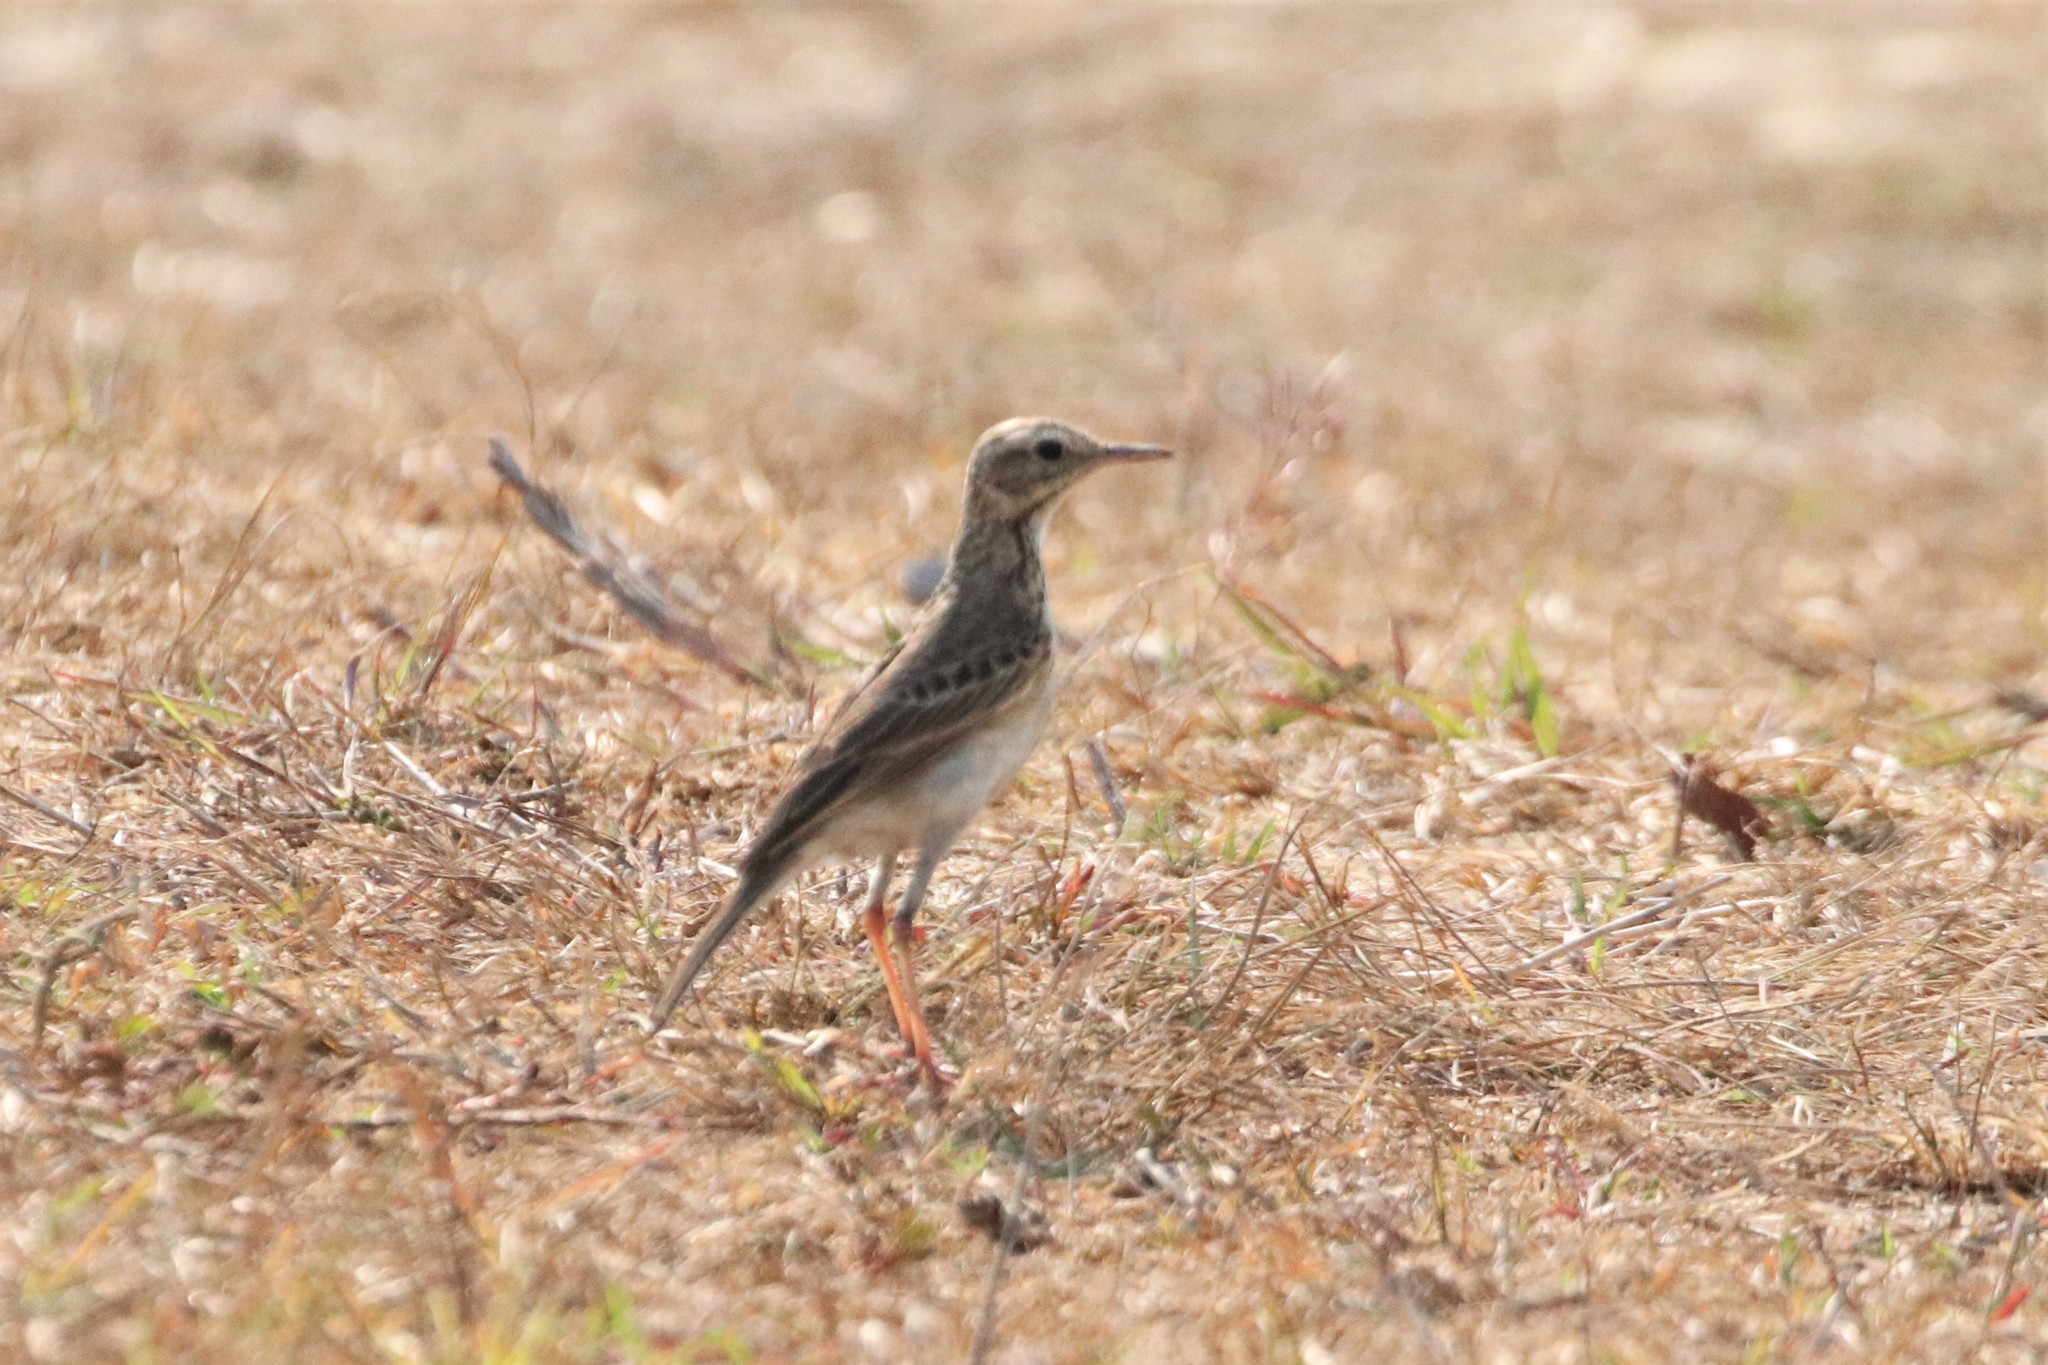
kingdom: Animalia
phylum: Chordata
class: Aves
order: Passeriformes
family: Motacillidae
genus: Anthus
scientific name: Anthus rufulus
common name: Paddyfield pipit
